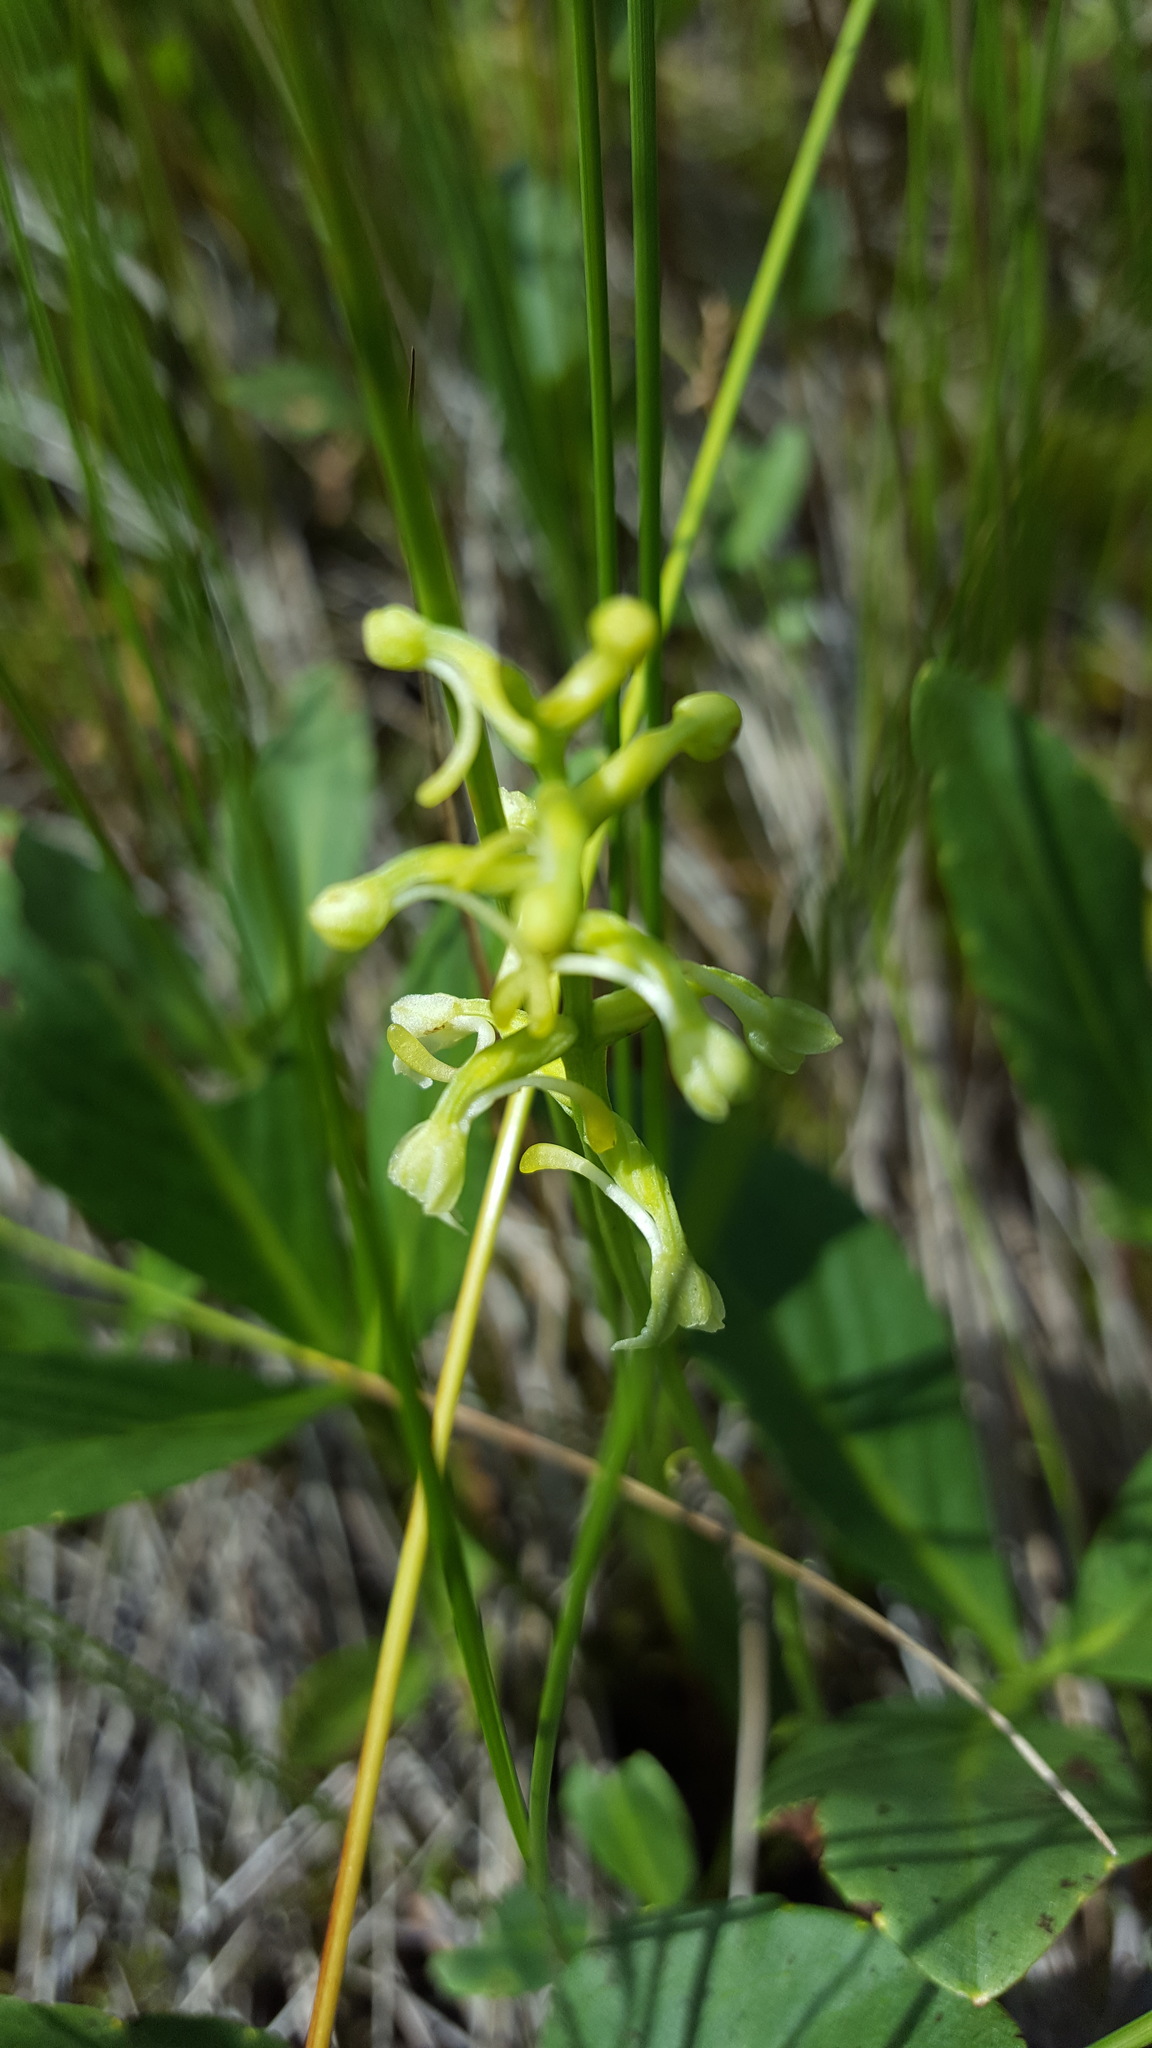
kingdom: Plantae
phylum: Tracheophyta
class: Liliopsida
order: Asparagales
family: Orchidaceae
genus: Platanthera
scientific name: Platanthera clavellata
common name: Club-spur orchid
